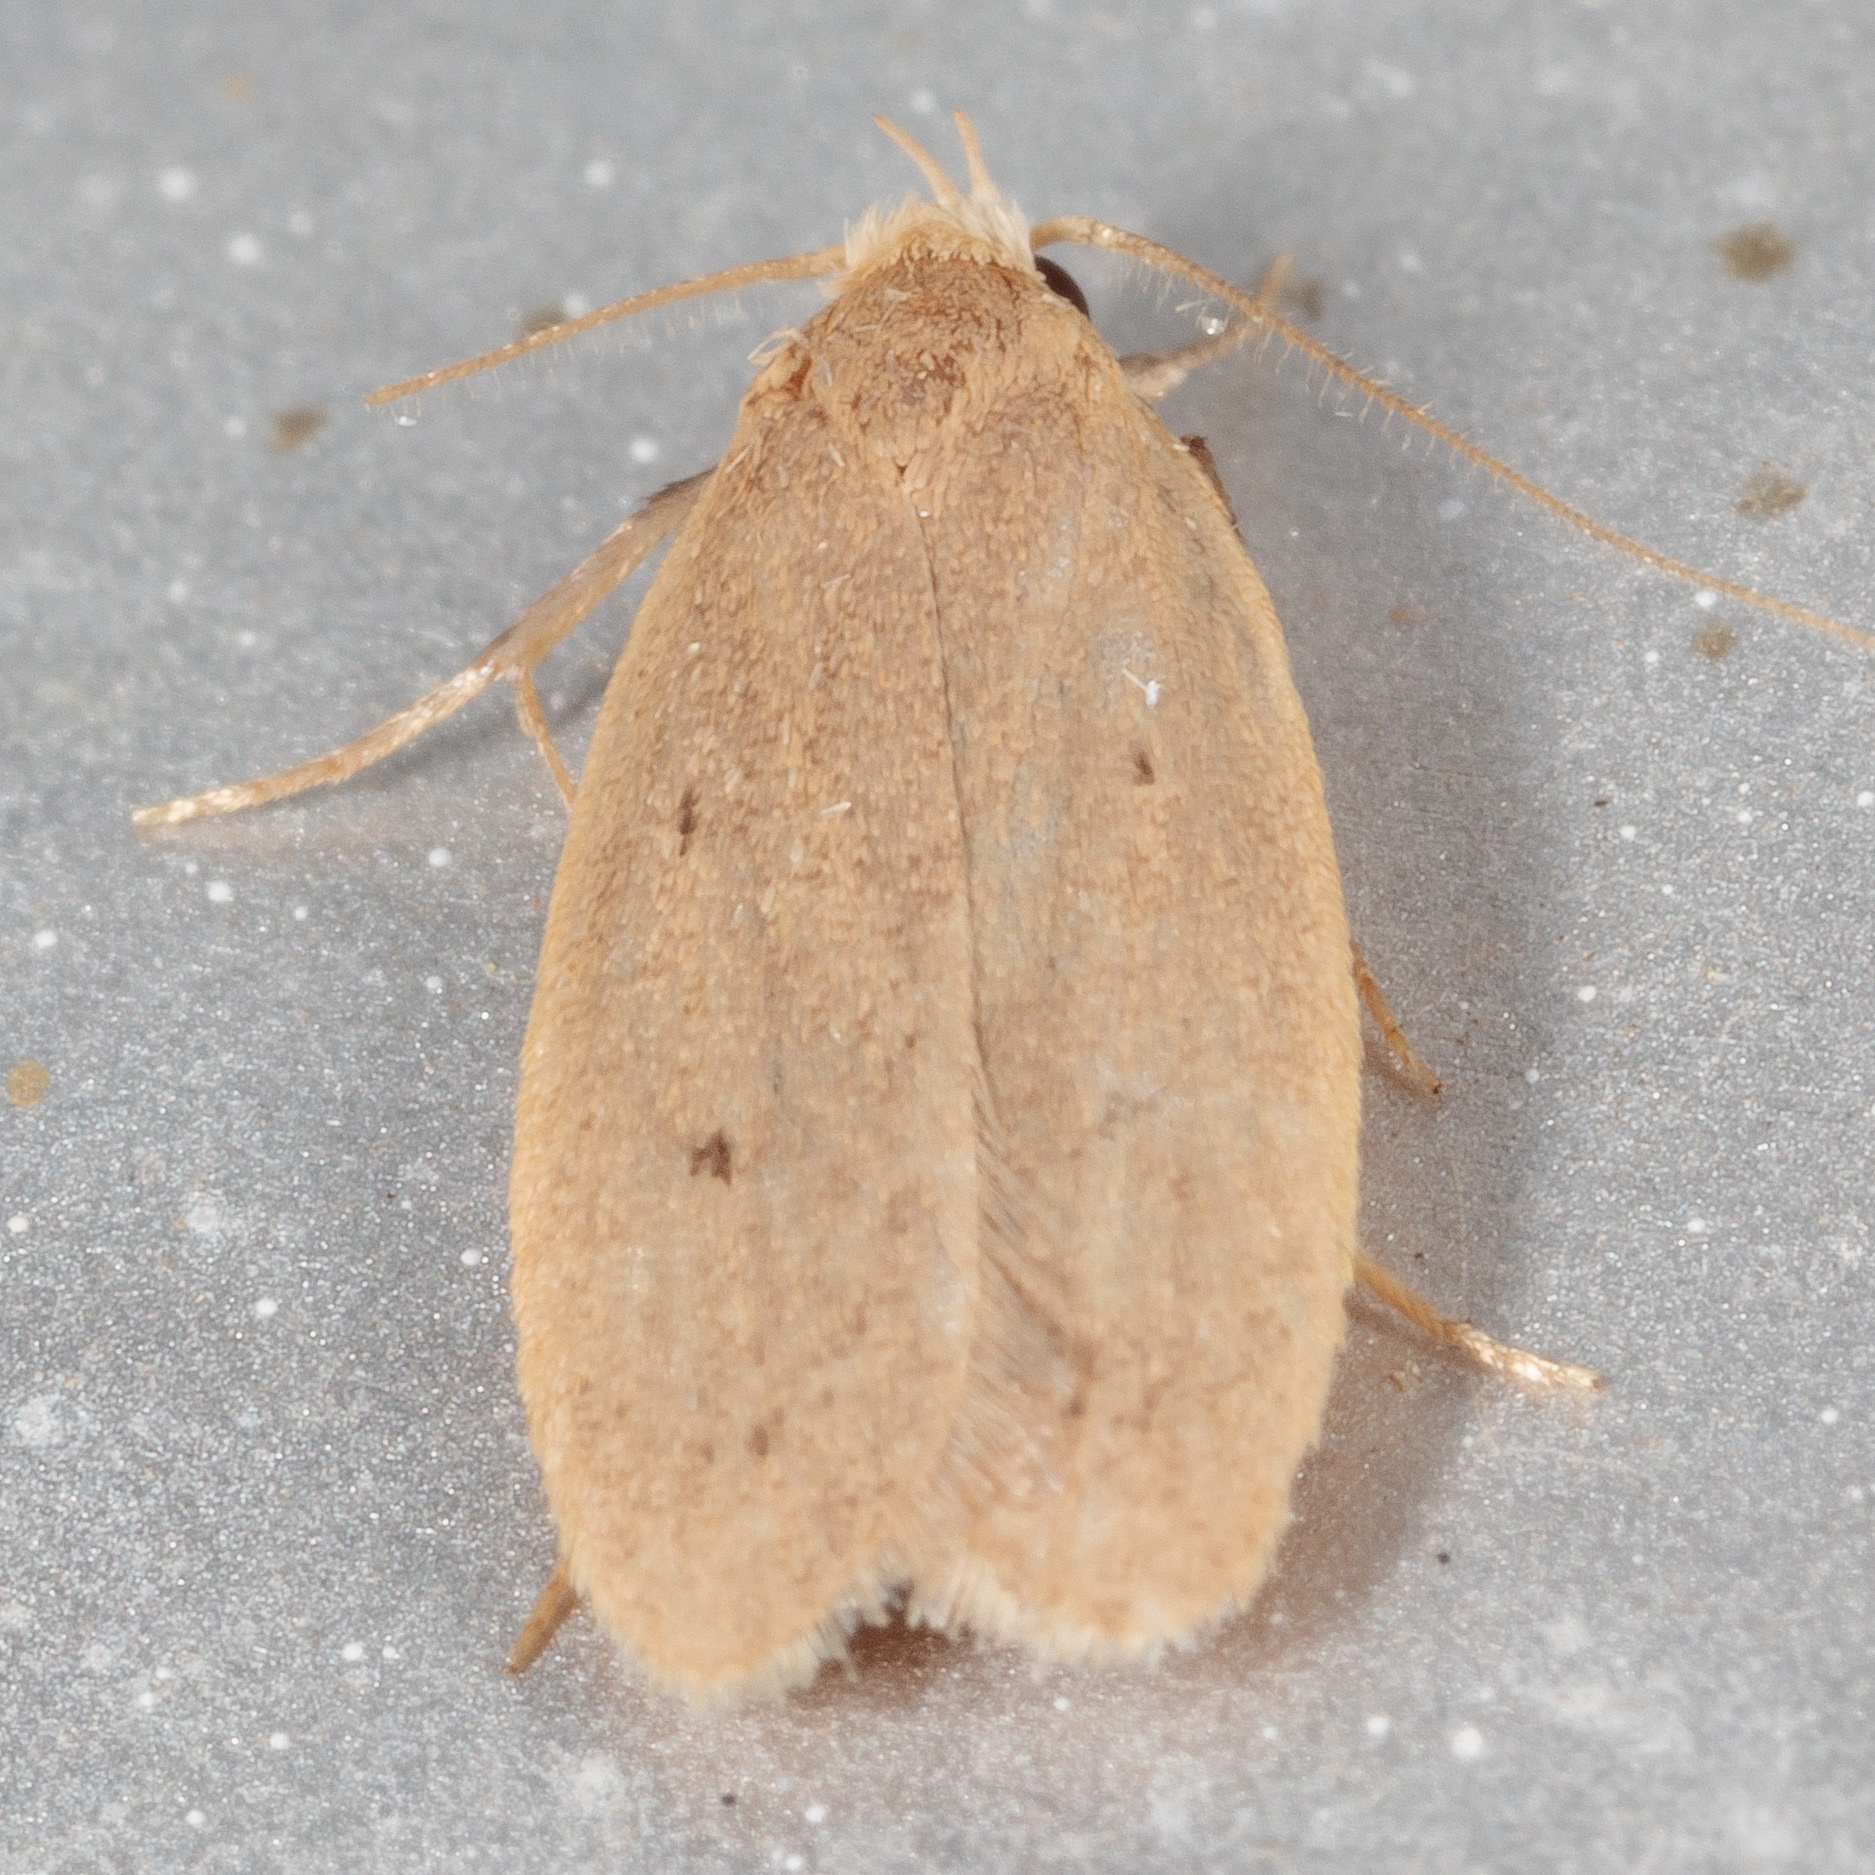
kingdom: Animalia
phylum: Arthropoda
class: Insecta
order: Lepidoptera
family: Oecophoridae
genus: Inga
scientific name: Inga obscuromaculella
